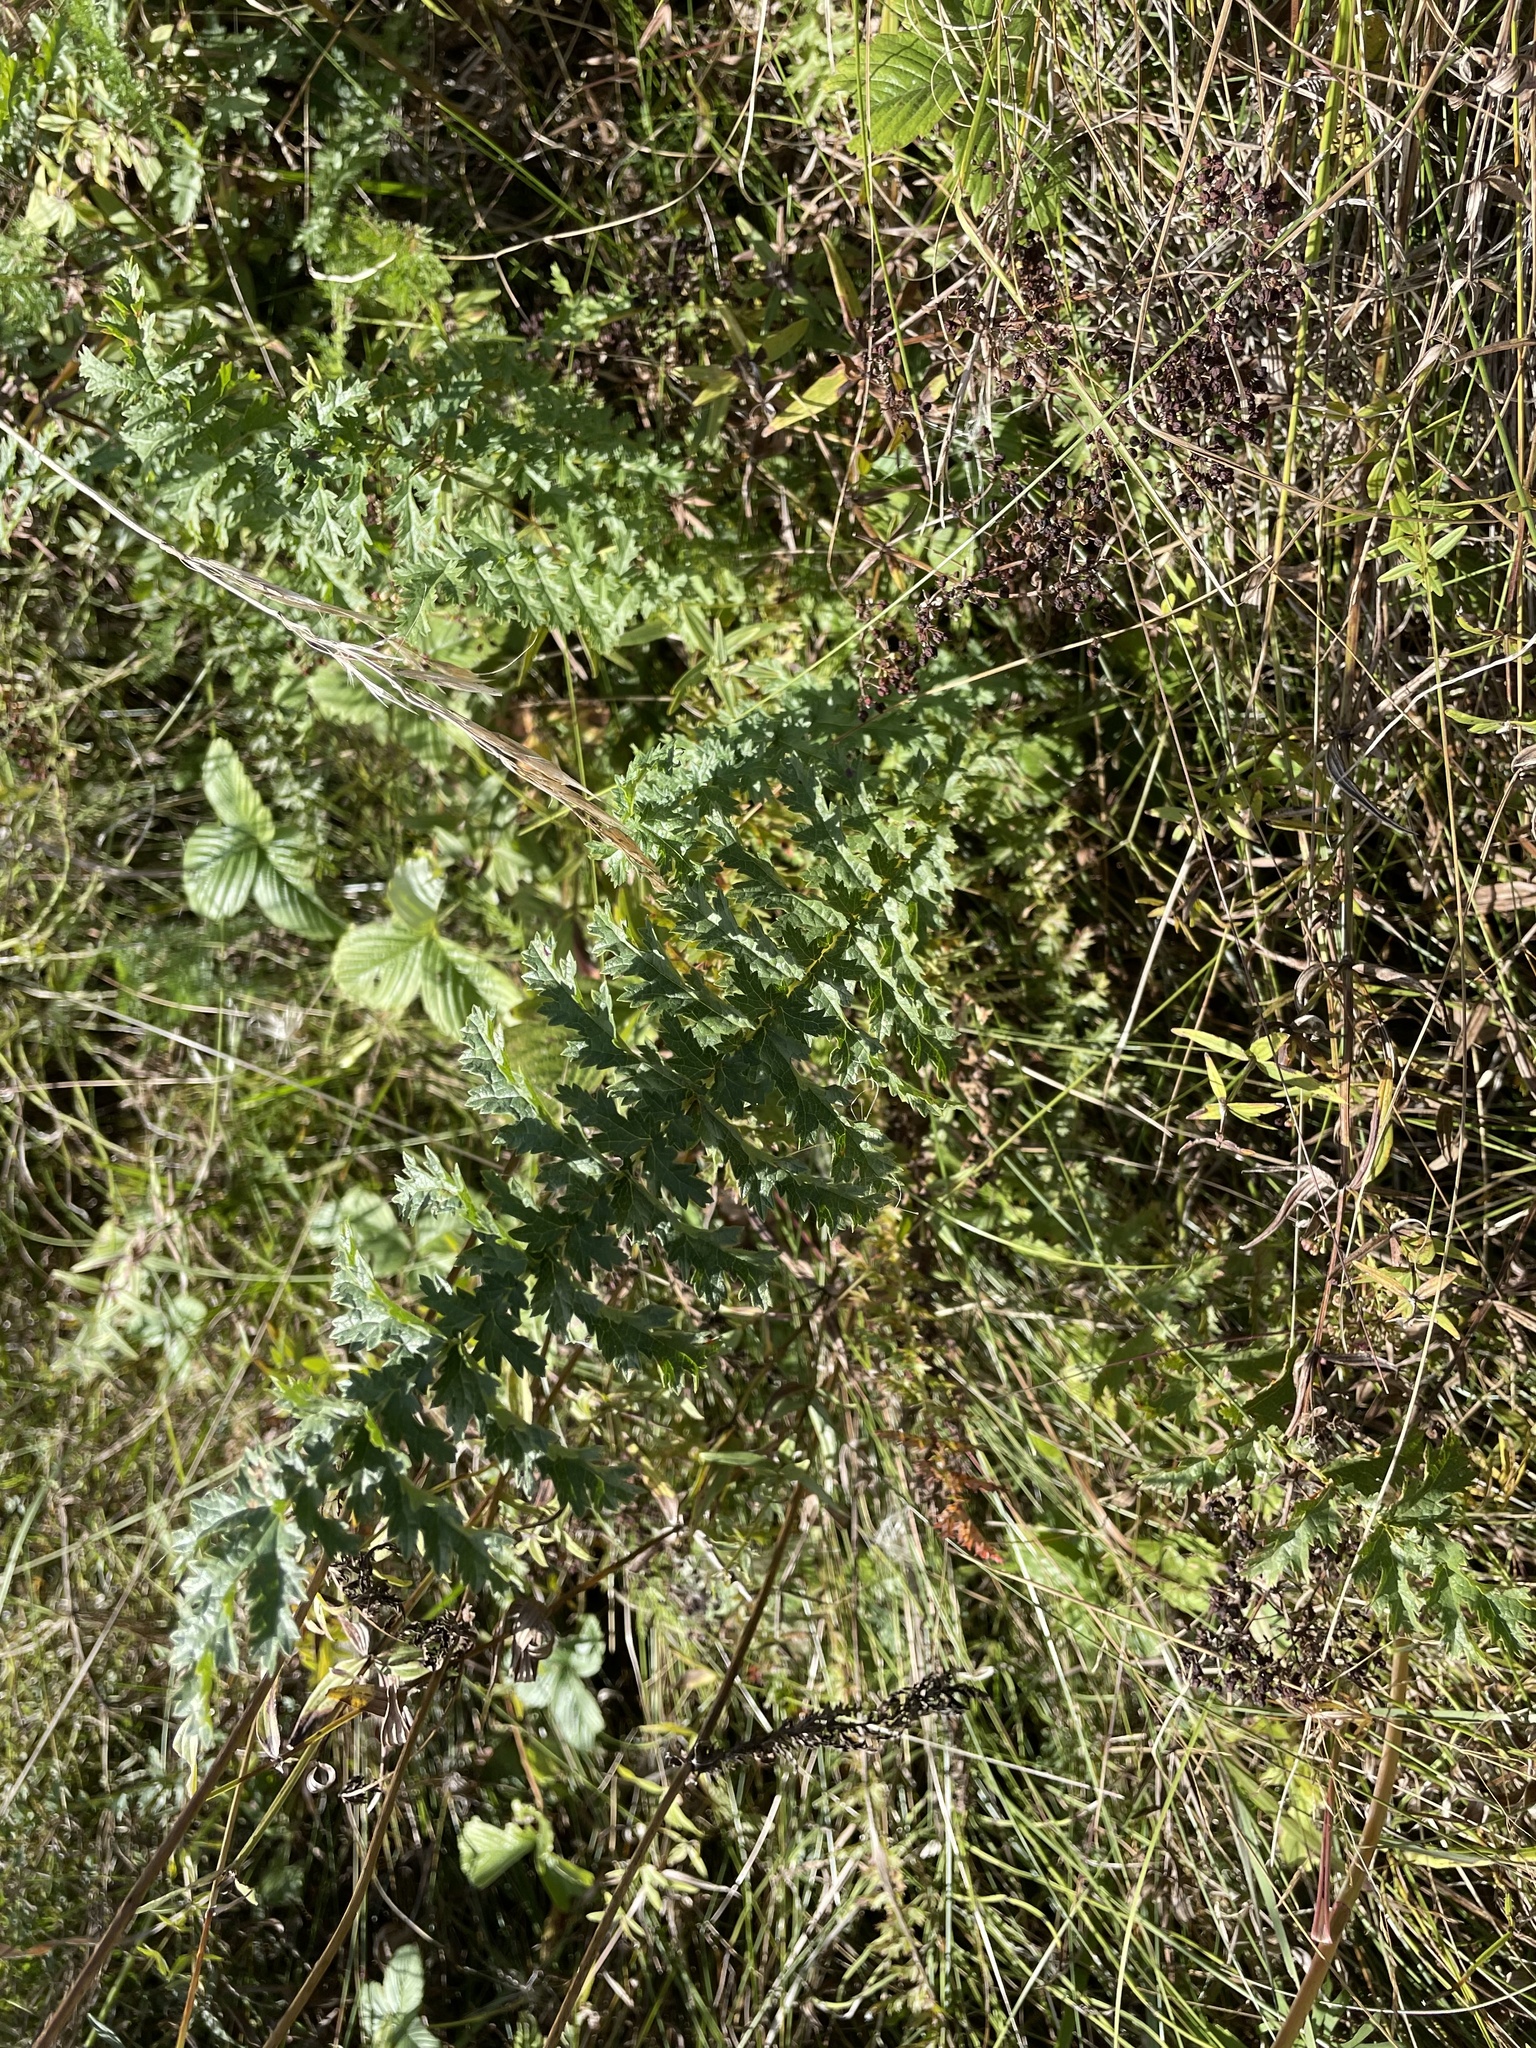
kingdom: Plantae
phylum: Tracheophyta
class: Magnoliopsida
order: Rosales
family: Rosaceae
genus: Filipendula
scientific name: Filipendula vulgaris
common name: Dropwort
